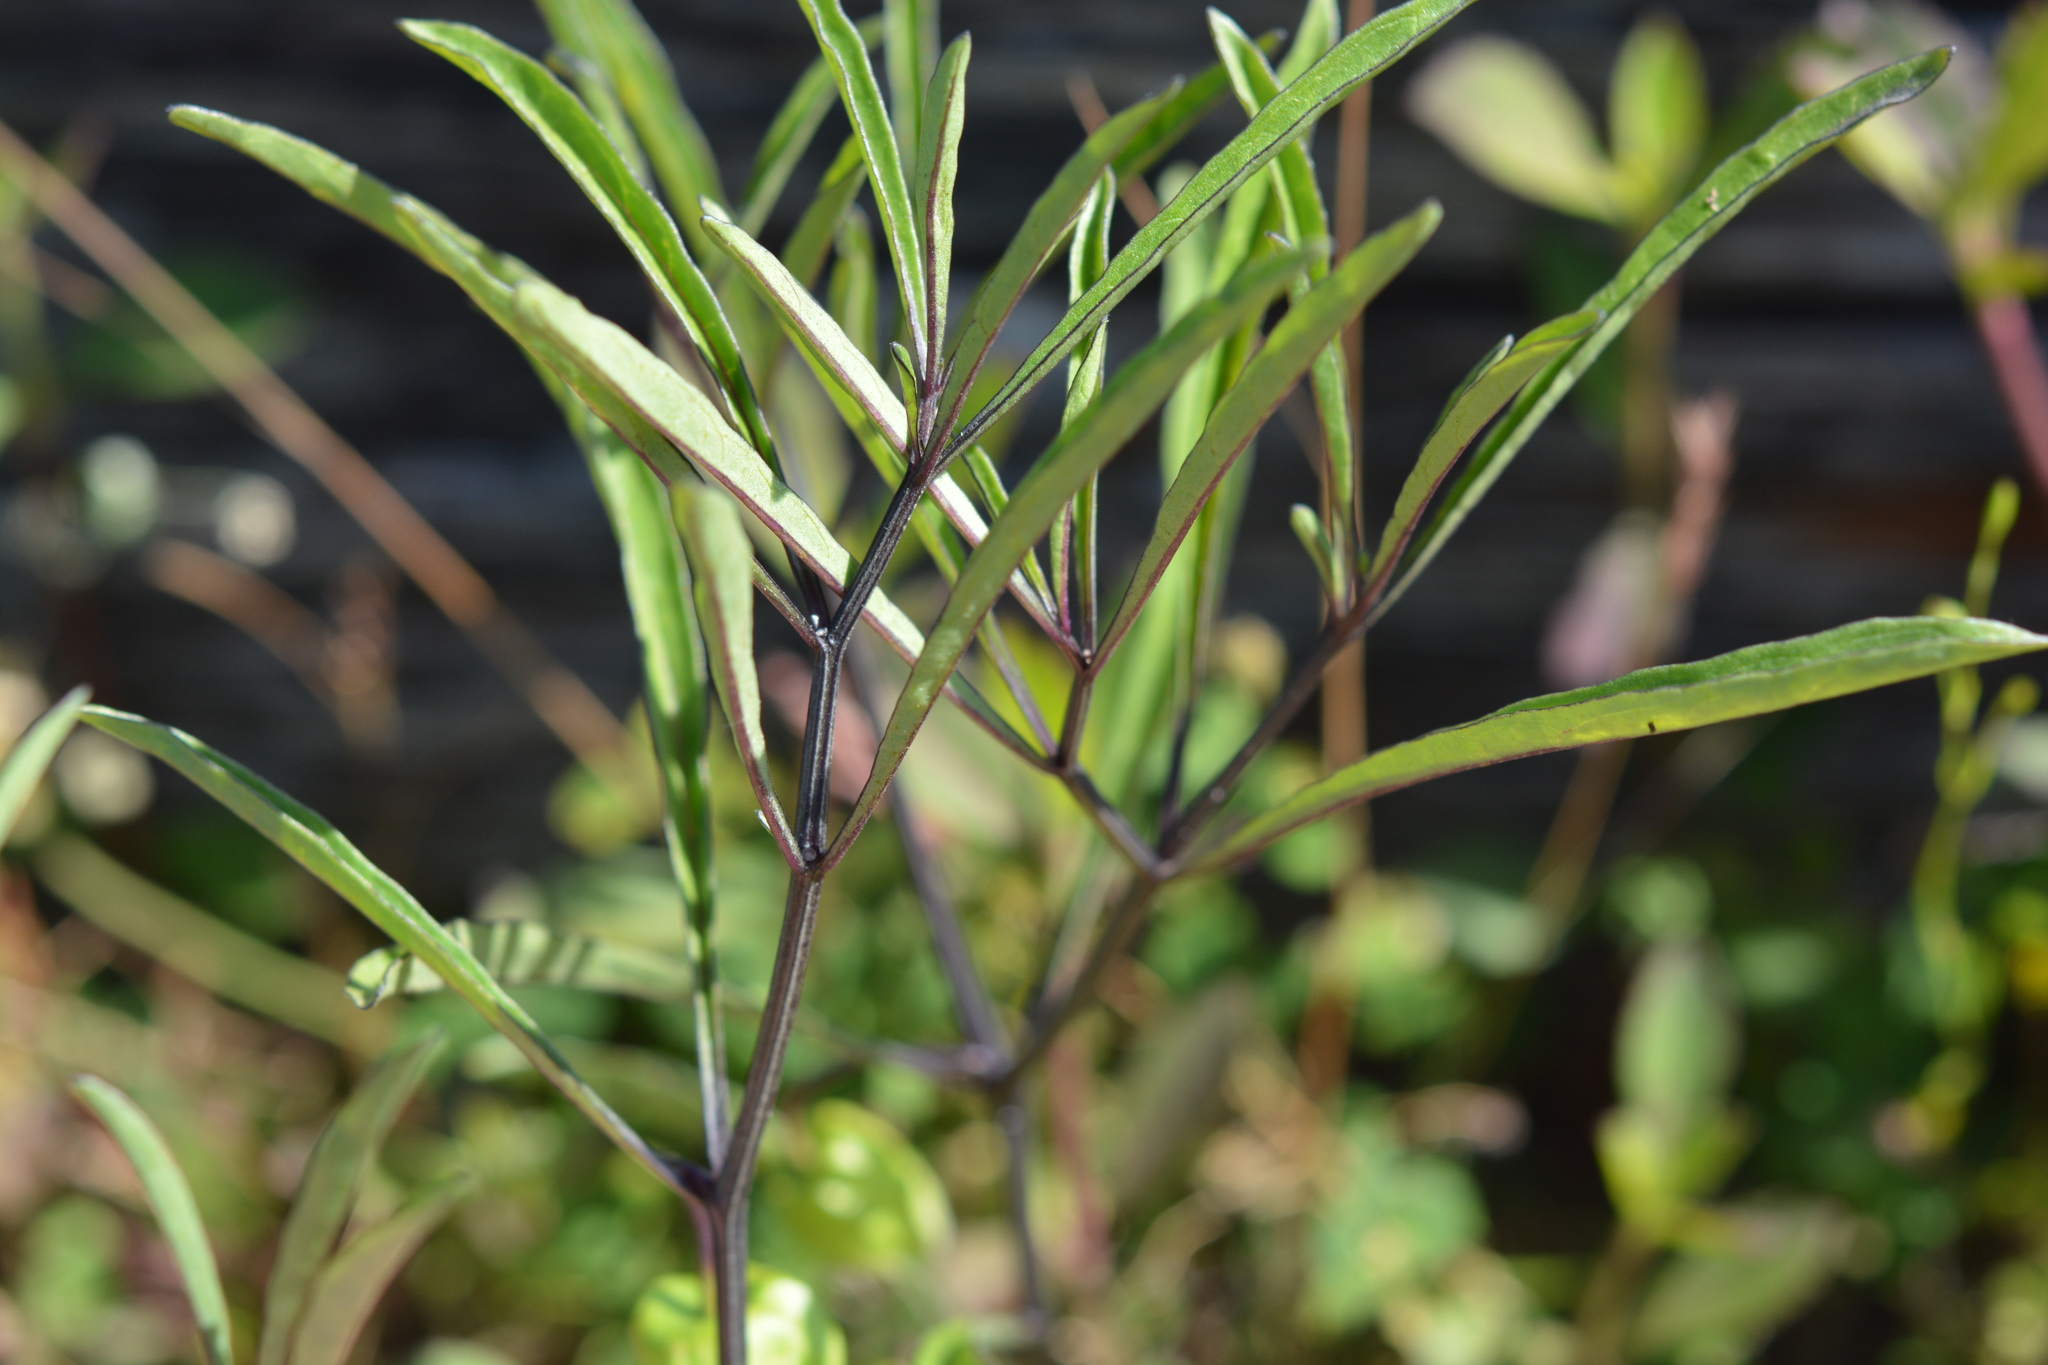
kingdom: Plantae
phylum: Tracheophyta
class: Magnoliopsida
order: Solanales
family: Solanaceae
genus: Physalis
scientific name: Physalis angustifolia
